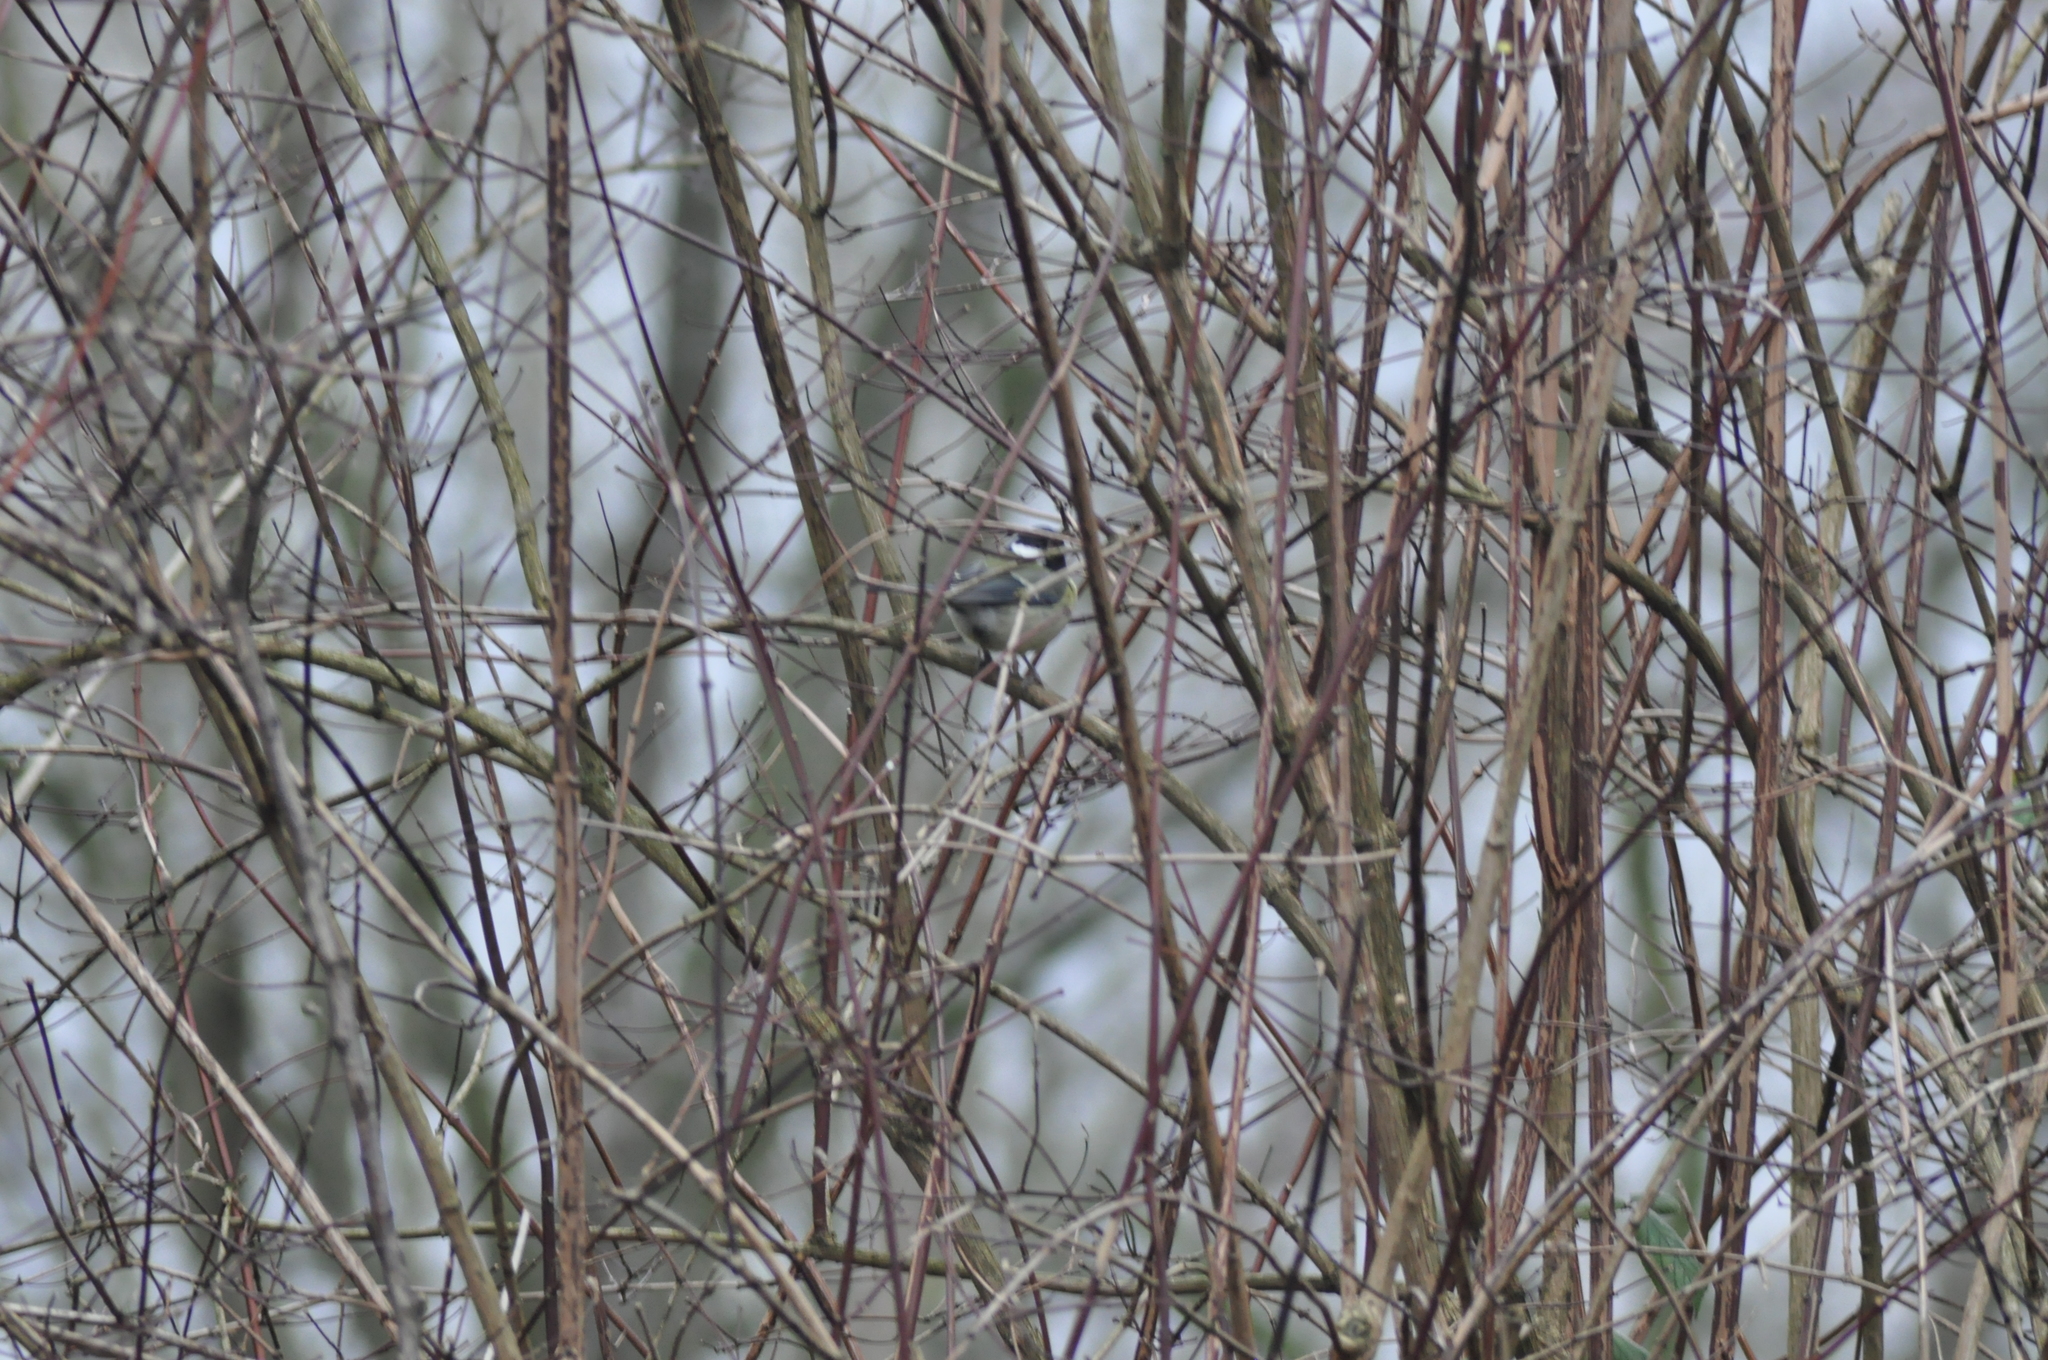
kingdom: Animalia
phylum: Chordata
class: Aves
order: Passeriformes
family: Paridae
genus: Parus
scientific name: Parus major
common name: Great tit
